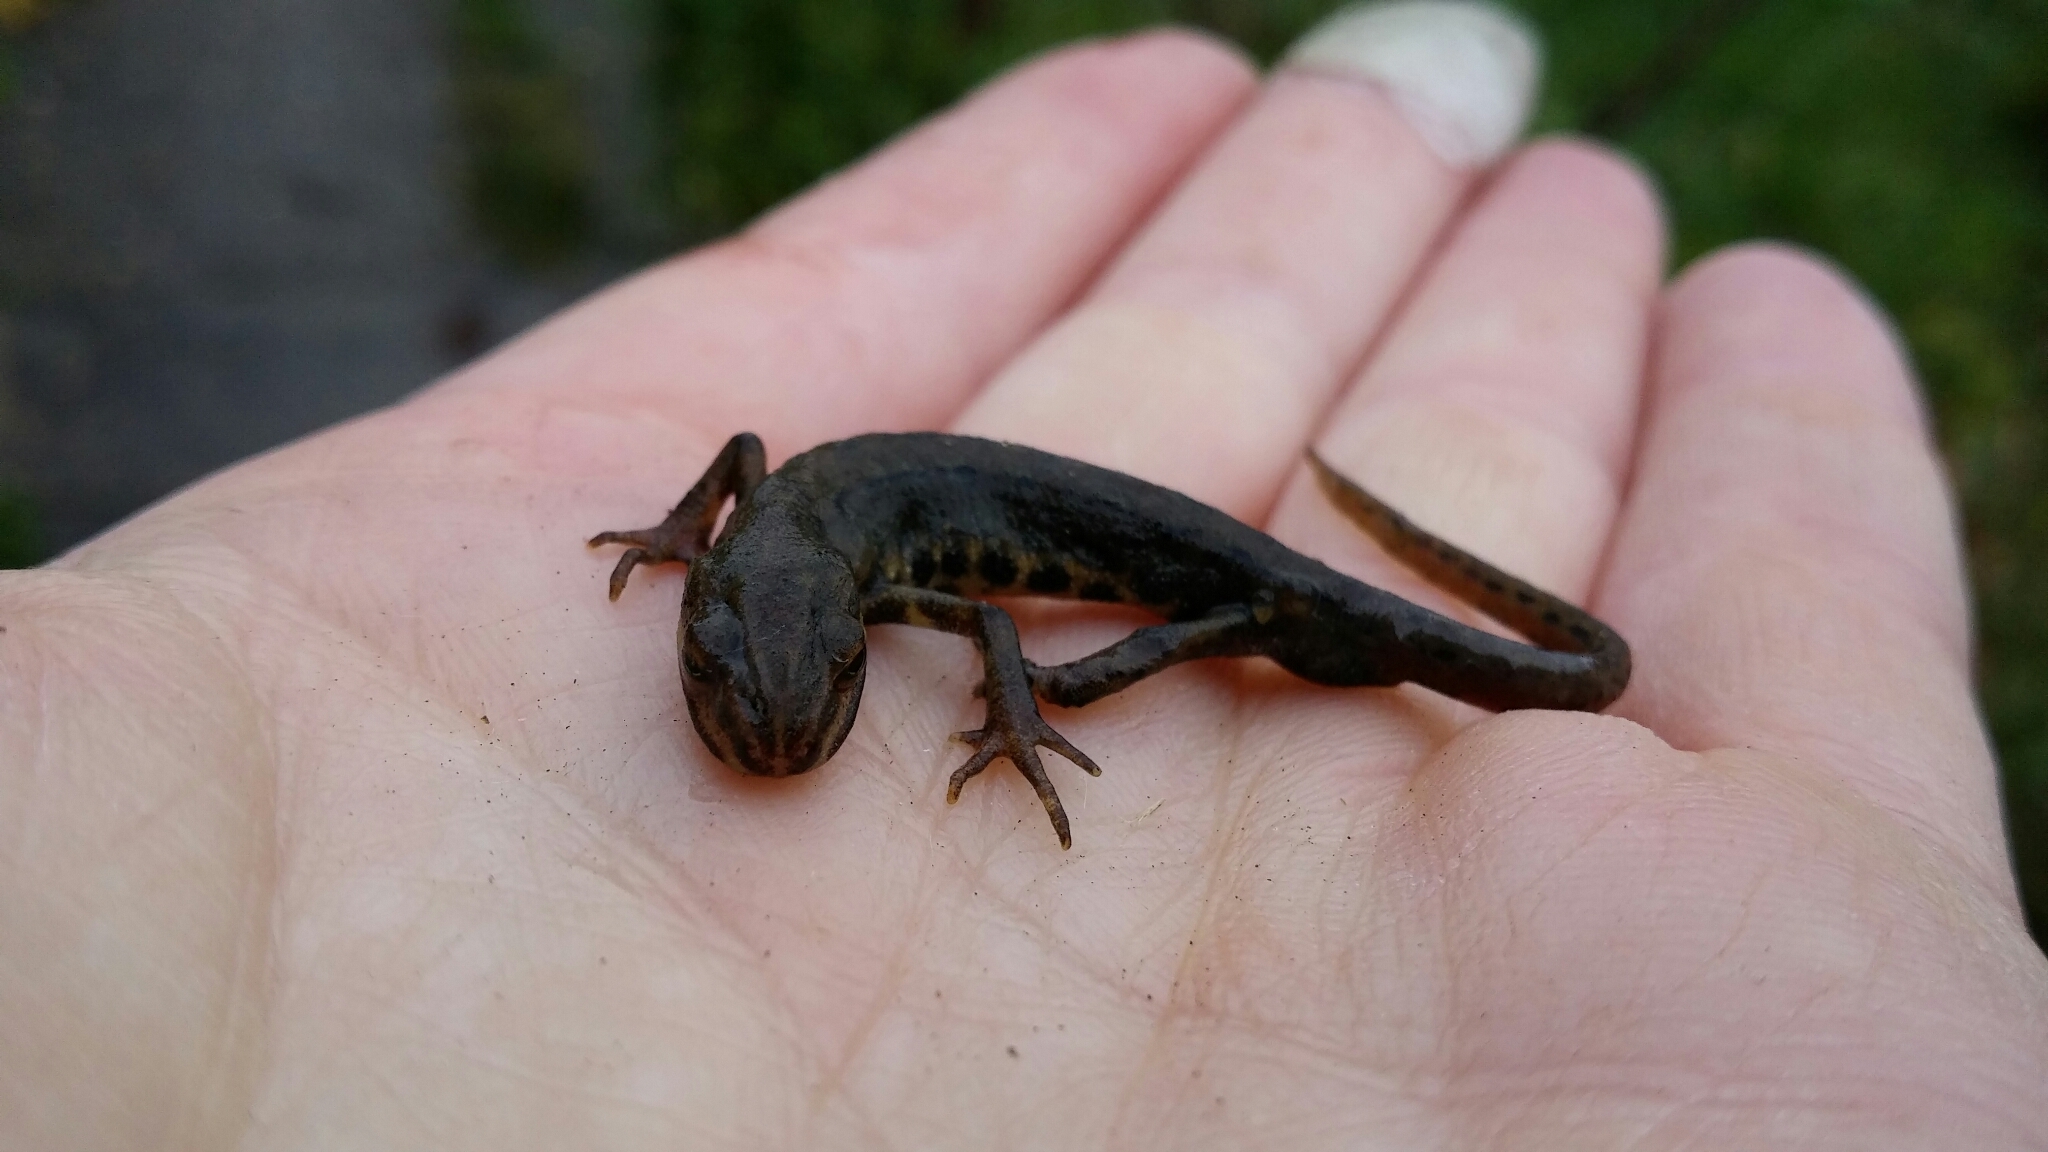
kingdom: Animalia
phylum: Chordata
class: Amphibia
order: Caudata
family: Salamandridae
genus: Lissotriton
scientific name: Lissotriton vulgaris
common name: Smooth newt
